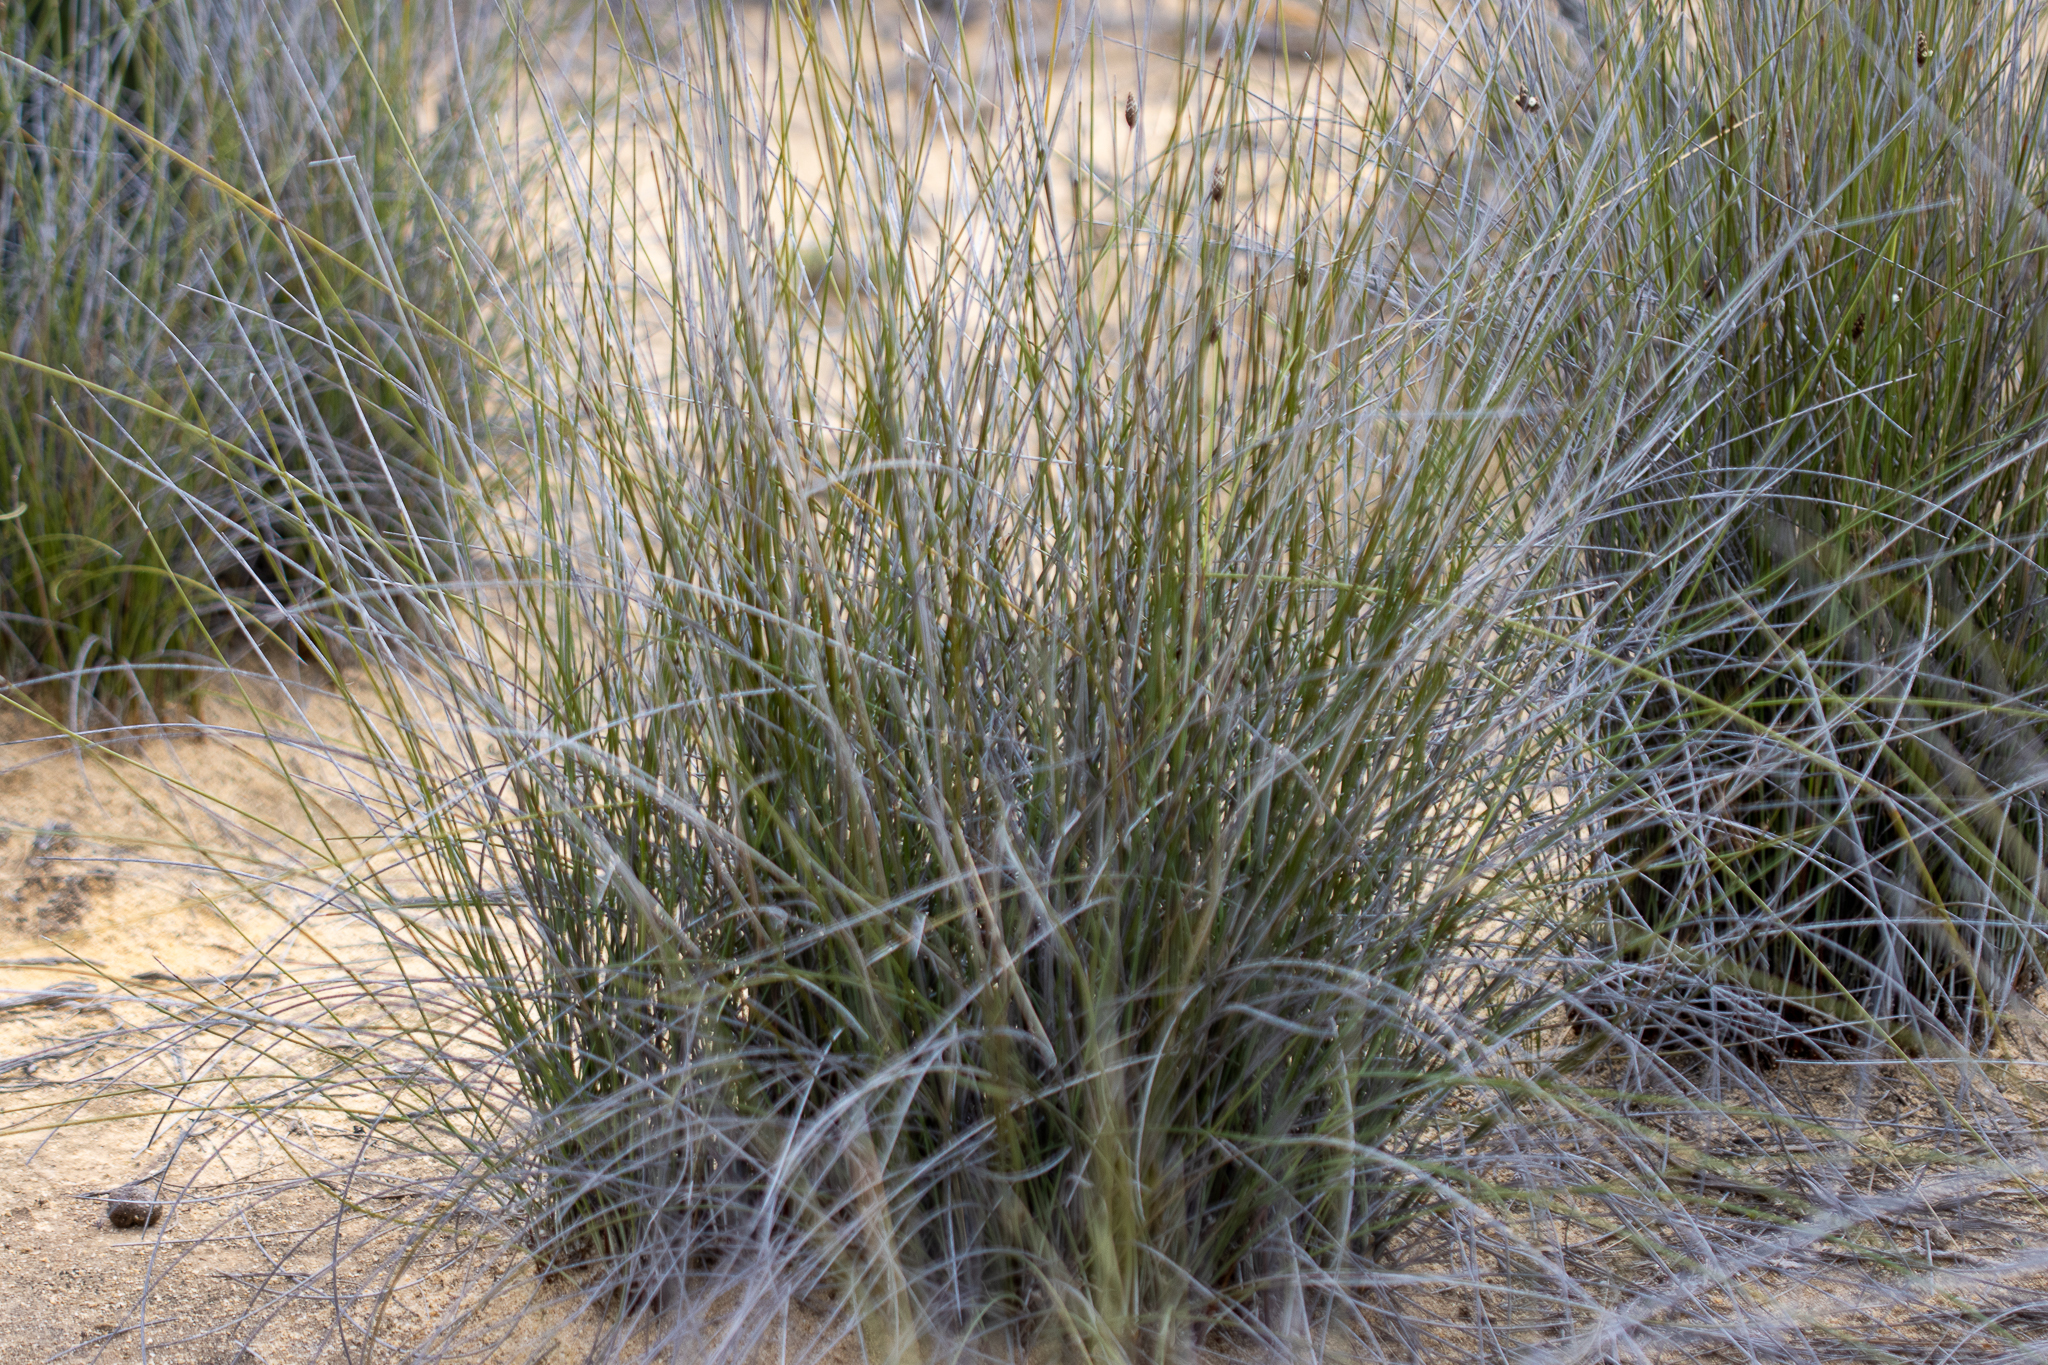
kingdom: Plantae
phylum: Tracheophyta
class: Liliopsida
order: Poales
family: Ecdeiocoleaceae
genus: Ecdeiocolea
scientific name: Ecdeiocolea monostachya
